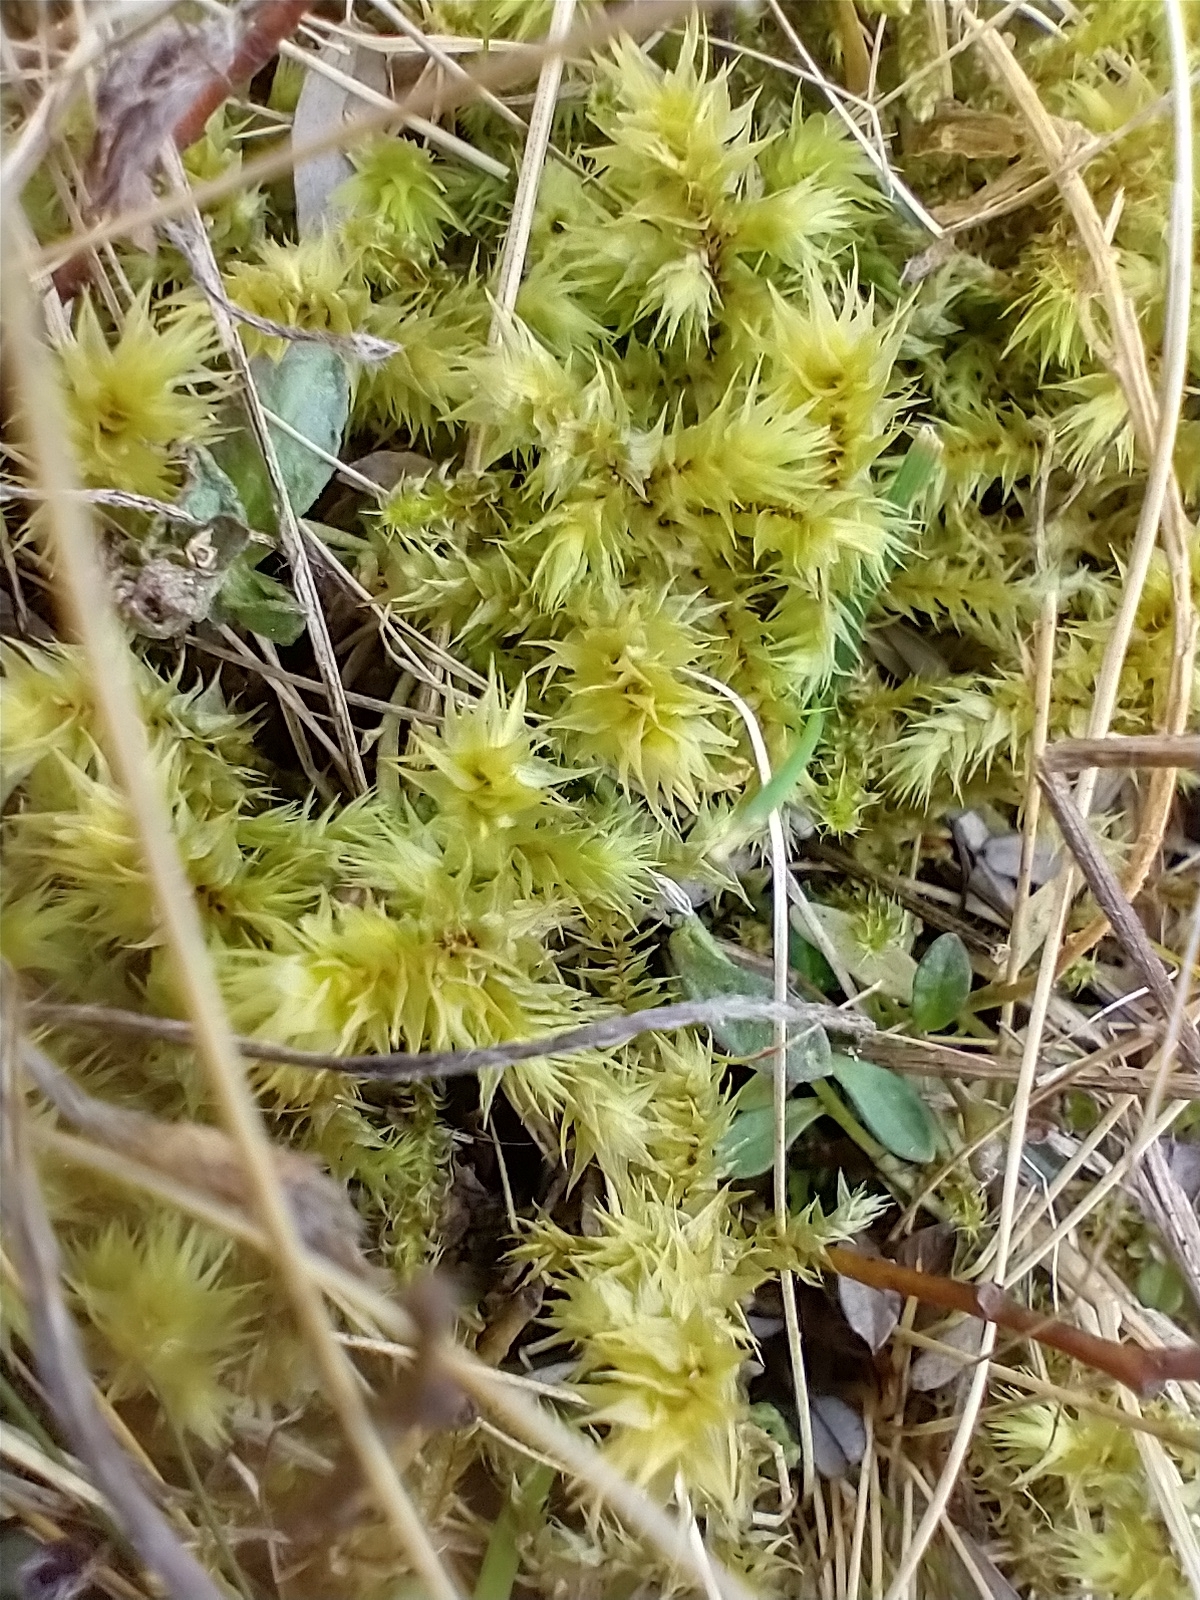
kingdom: Plantae
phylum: Bryophyta
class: Bryopsida
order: Hypnales
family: Hylocomiaceae
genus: Hylocomiadelphus
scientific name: Hylocomiadelphus triquetrus
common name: Rough goose neck moss
